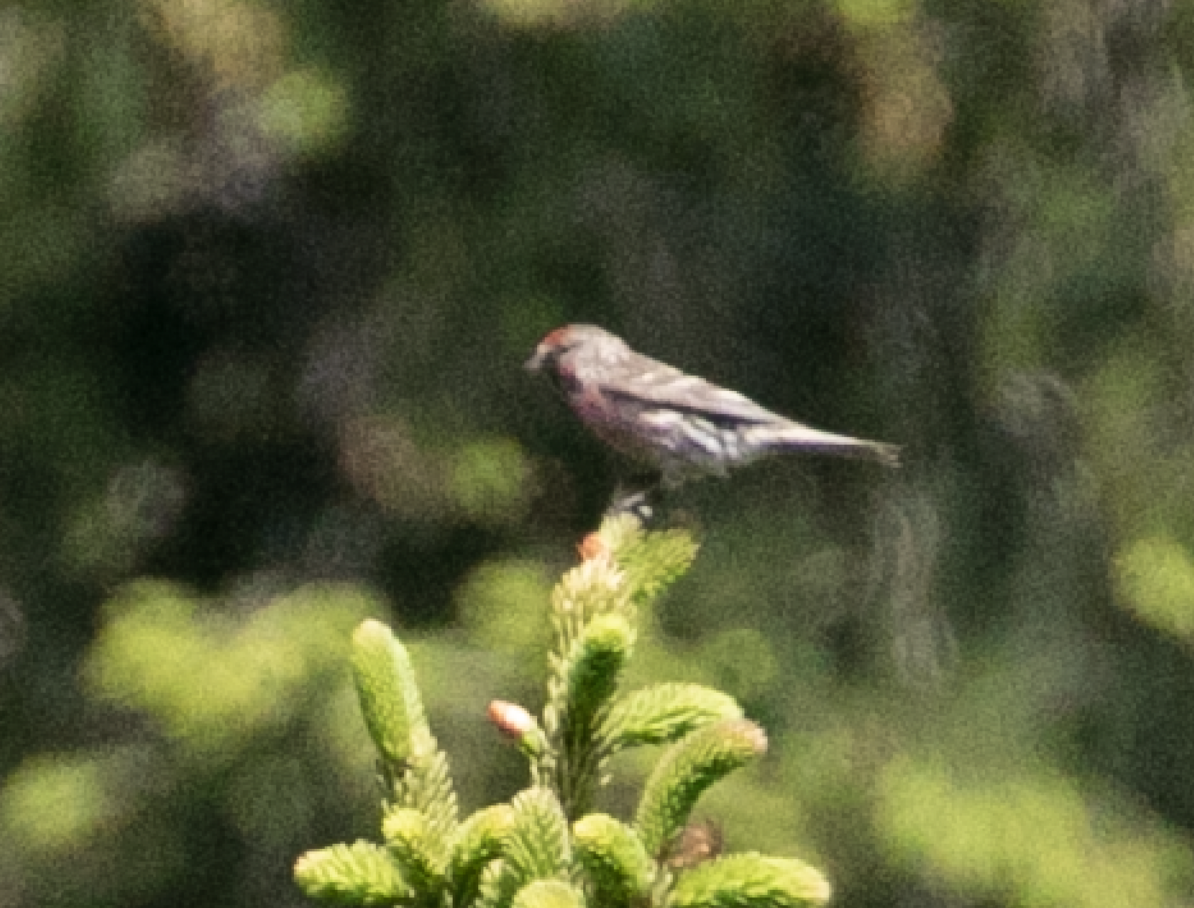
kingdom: Animalia
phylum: Chordata
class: Aves
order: Passeriformes
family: Fringillidae
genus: Acanthis
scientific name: Acanthis flammea
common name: Common redpoll
